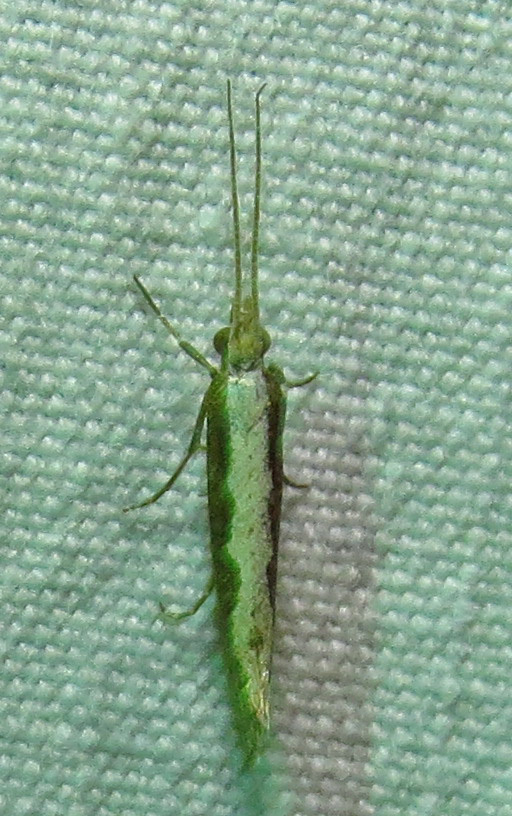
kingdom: Animalia
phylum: Arthropoda
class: Insecta
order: Lepidoptera
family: Plutellidae
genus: Plutella
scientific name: Plutella xylostella
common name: Diamond-back moth
